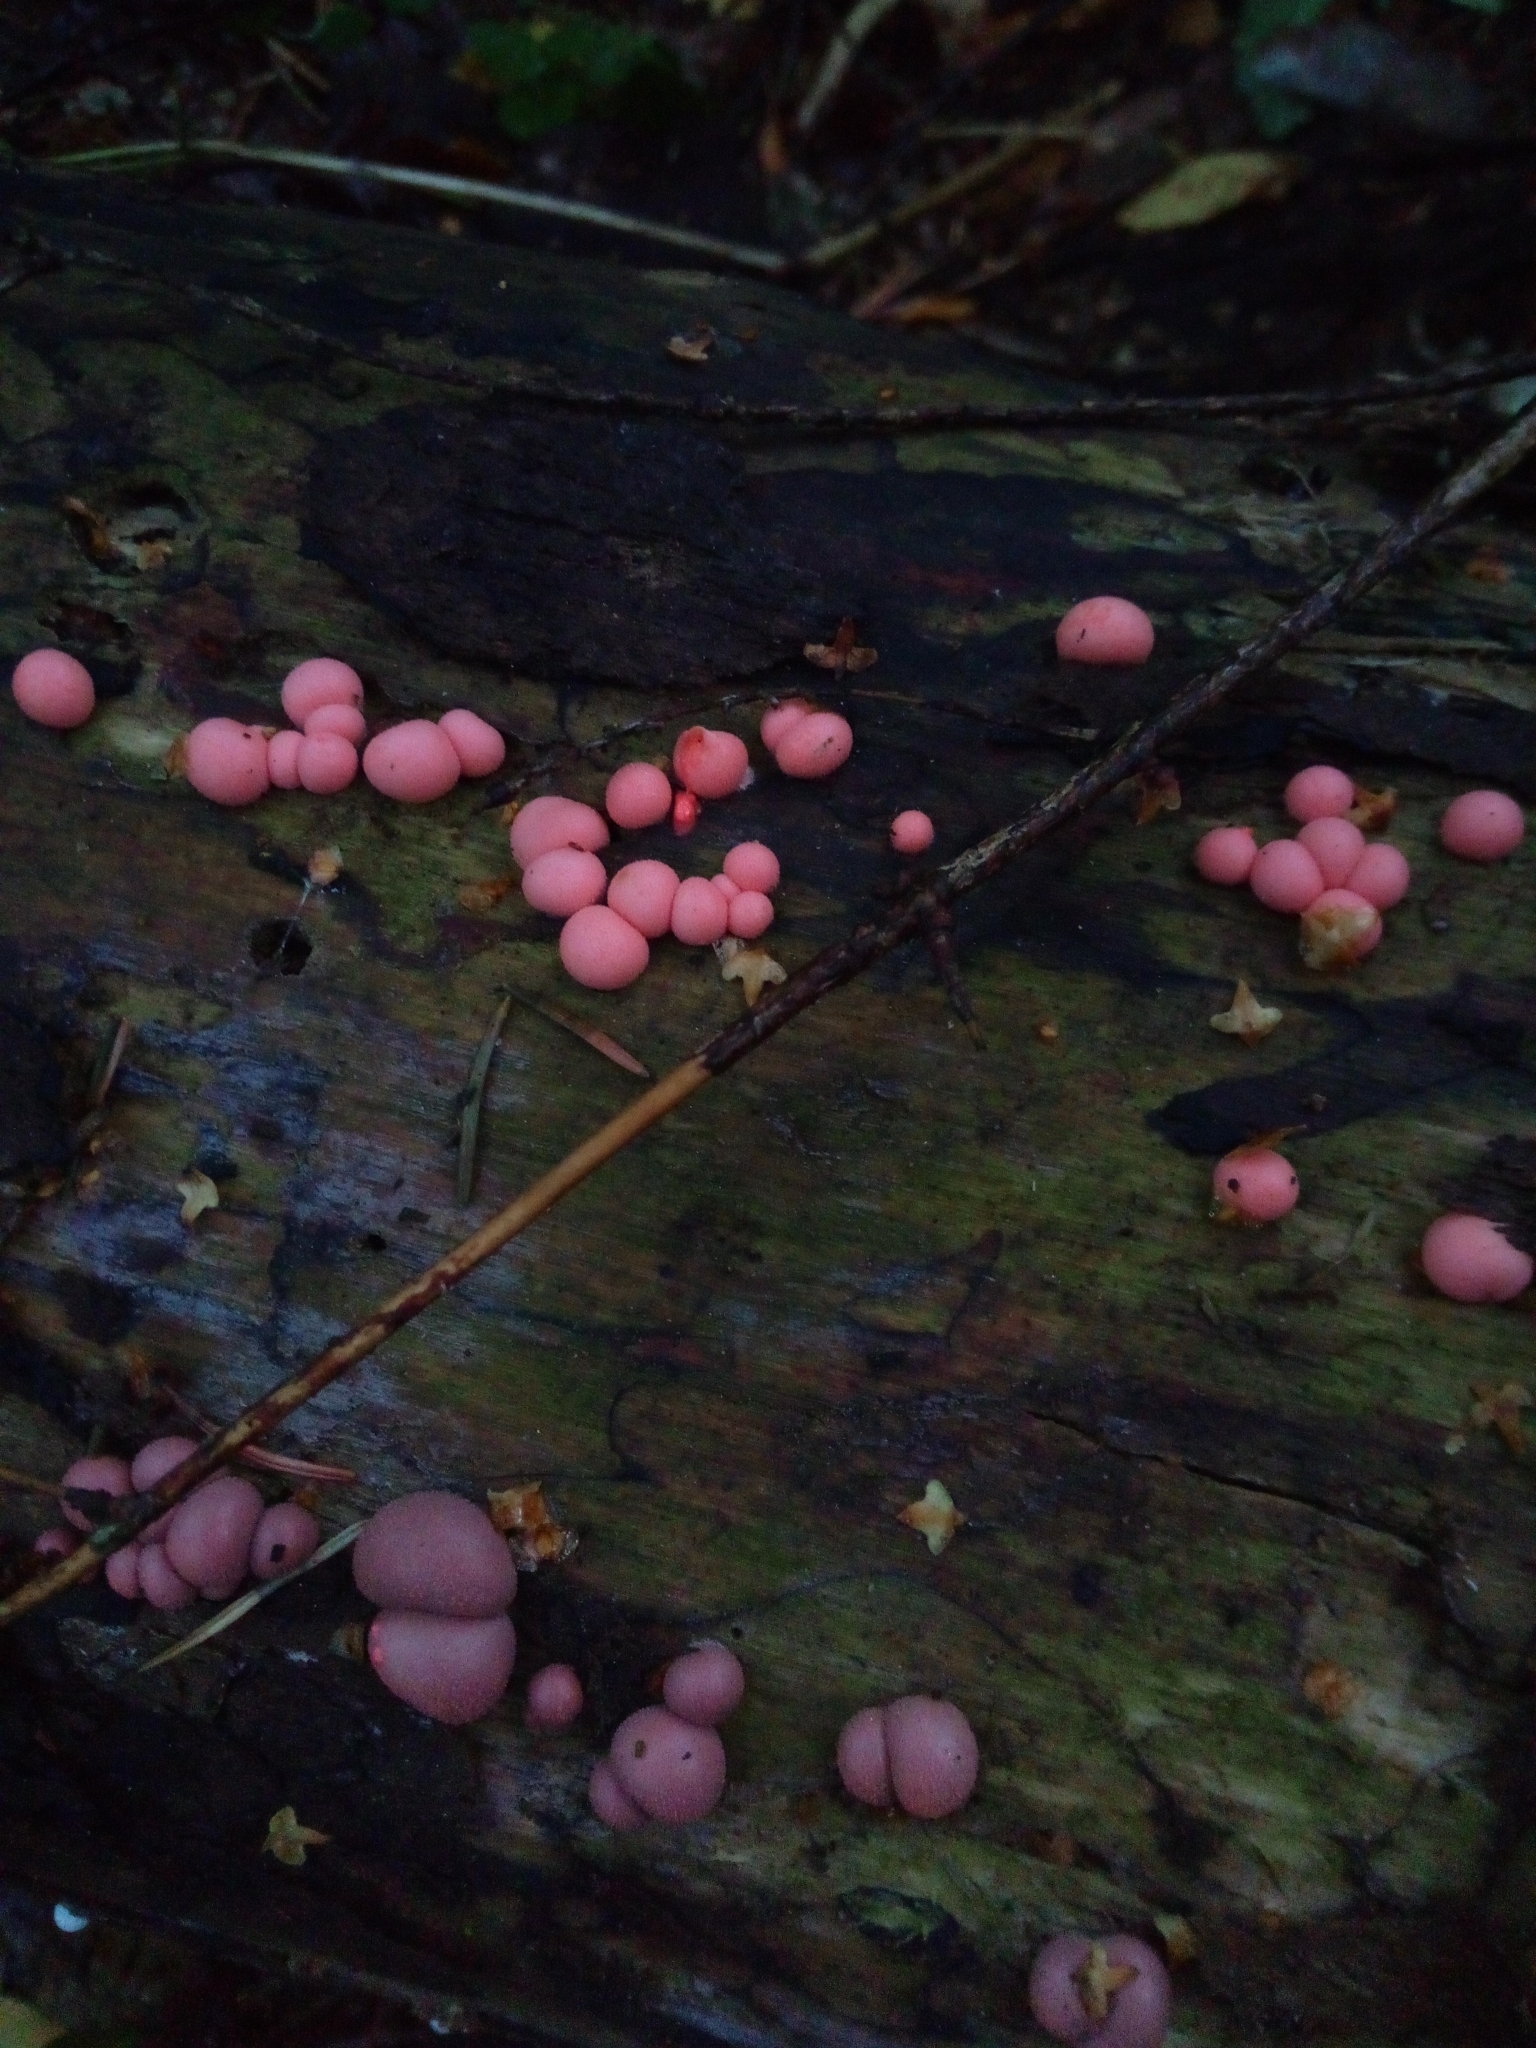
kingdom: Protozoa
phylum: Mycetozoa
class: Myxomycetes
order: Cribrariales
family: Tubiferaceae
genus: Lycogala
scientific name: Lycogala epidendrum
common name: Wolf's milk
